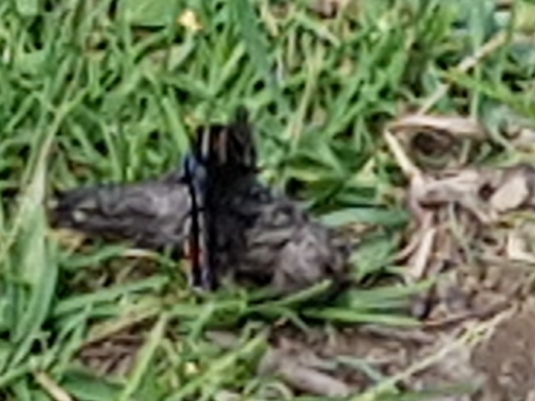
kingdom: Animalia
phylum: Arthropoda
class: Insecta
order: Lepidoptera
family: Nymphalidae
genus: Vanessa
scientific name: Vanessa atalanta
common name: Red admiral
